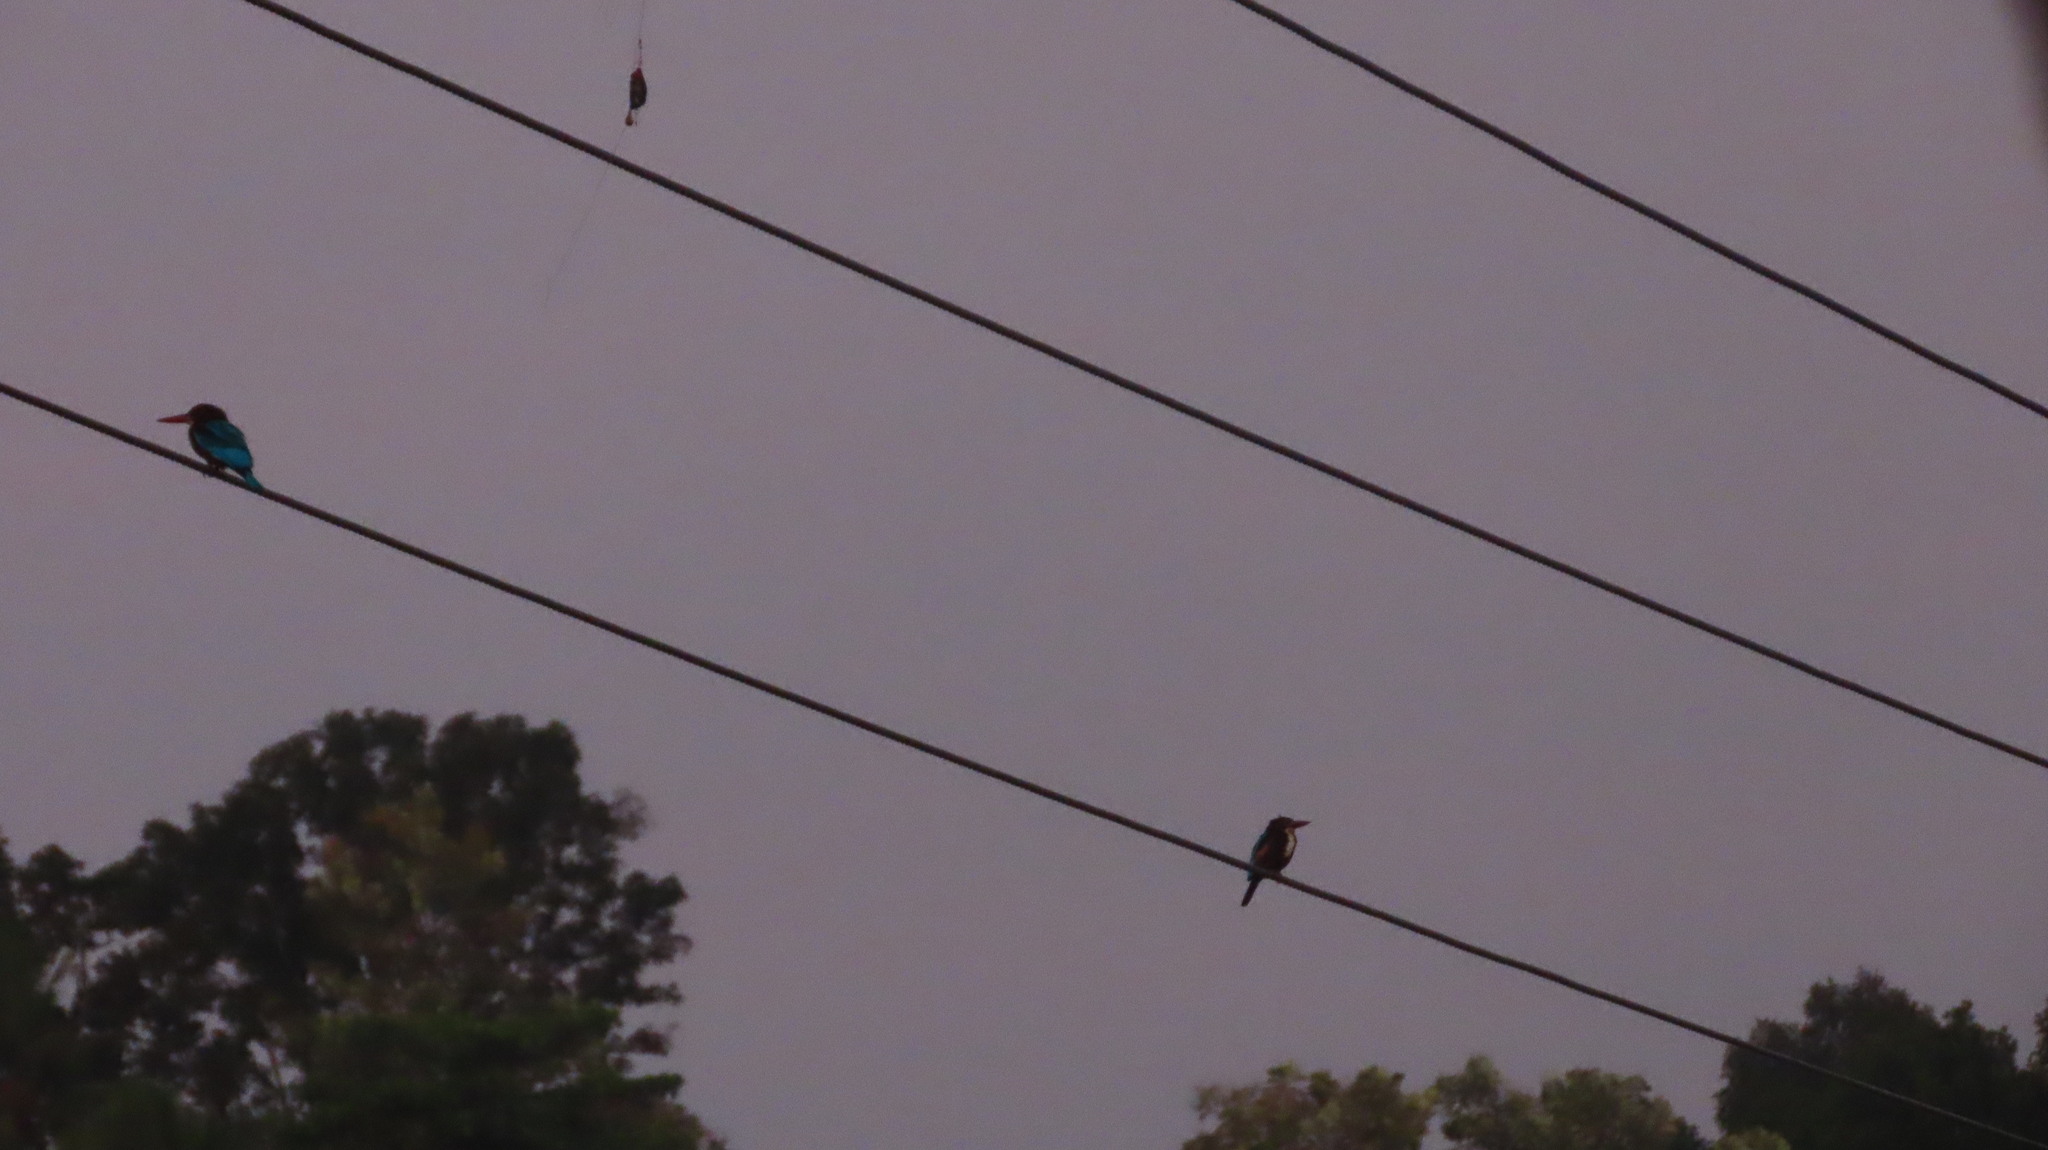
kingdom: Animalia
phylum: Chordata
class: Aves
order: Coraciiformes
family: Alcedinidae
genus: Halcyon
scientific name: Halcyon smyrnensis
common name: White-throated kingfisher
